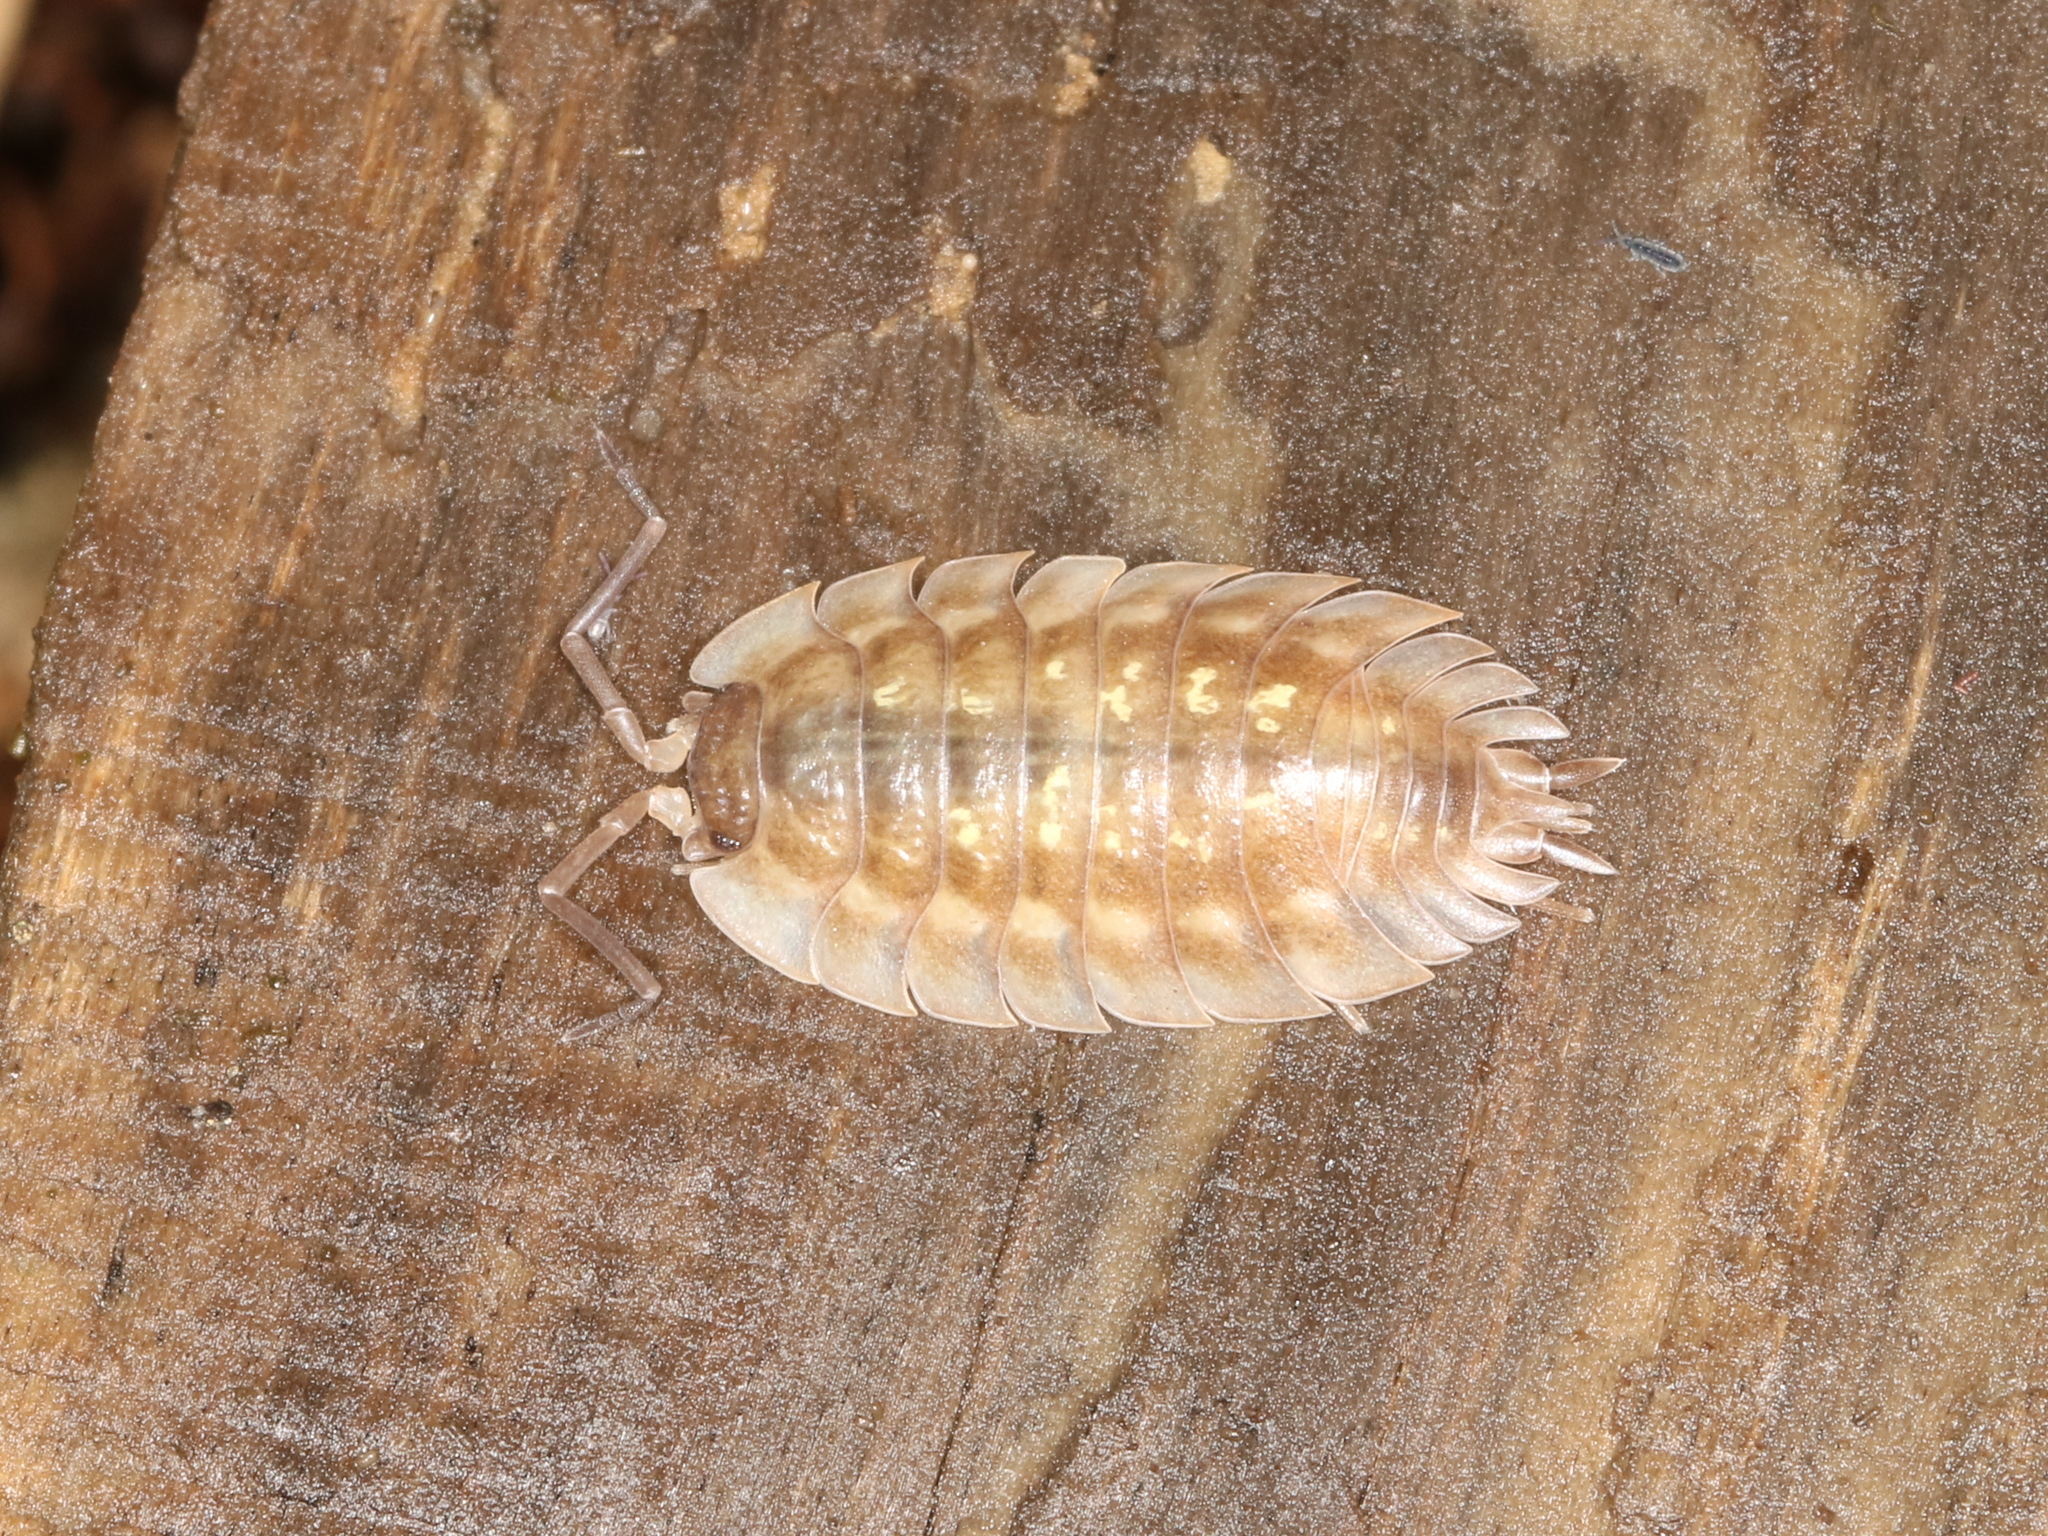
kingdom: Animalia
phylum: Arthropoda
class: Malacostraca
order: Isopoda
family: Oniscidae
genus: Oniscus
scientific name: Oniscus asellus
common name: Common shiny woodlouse
